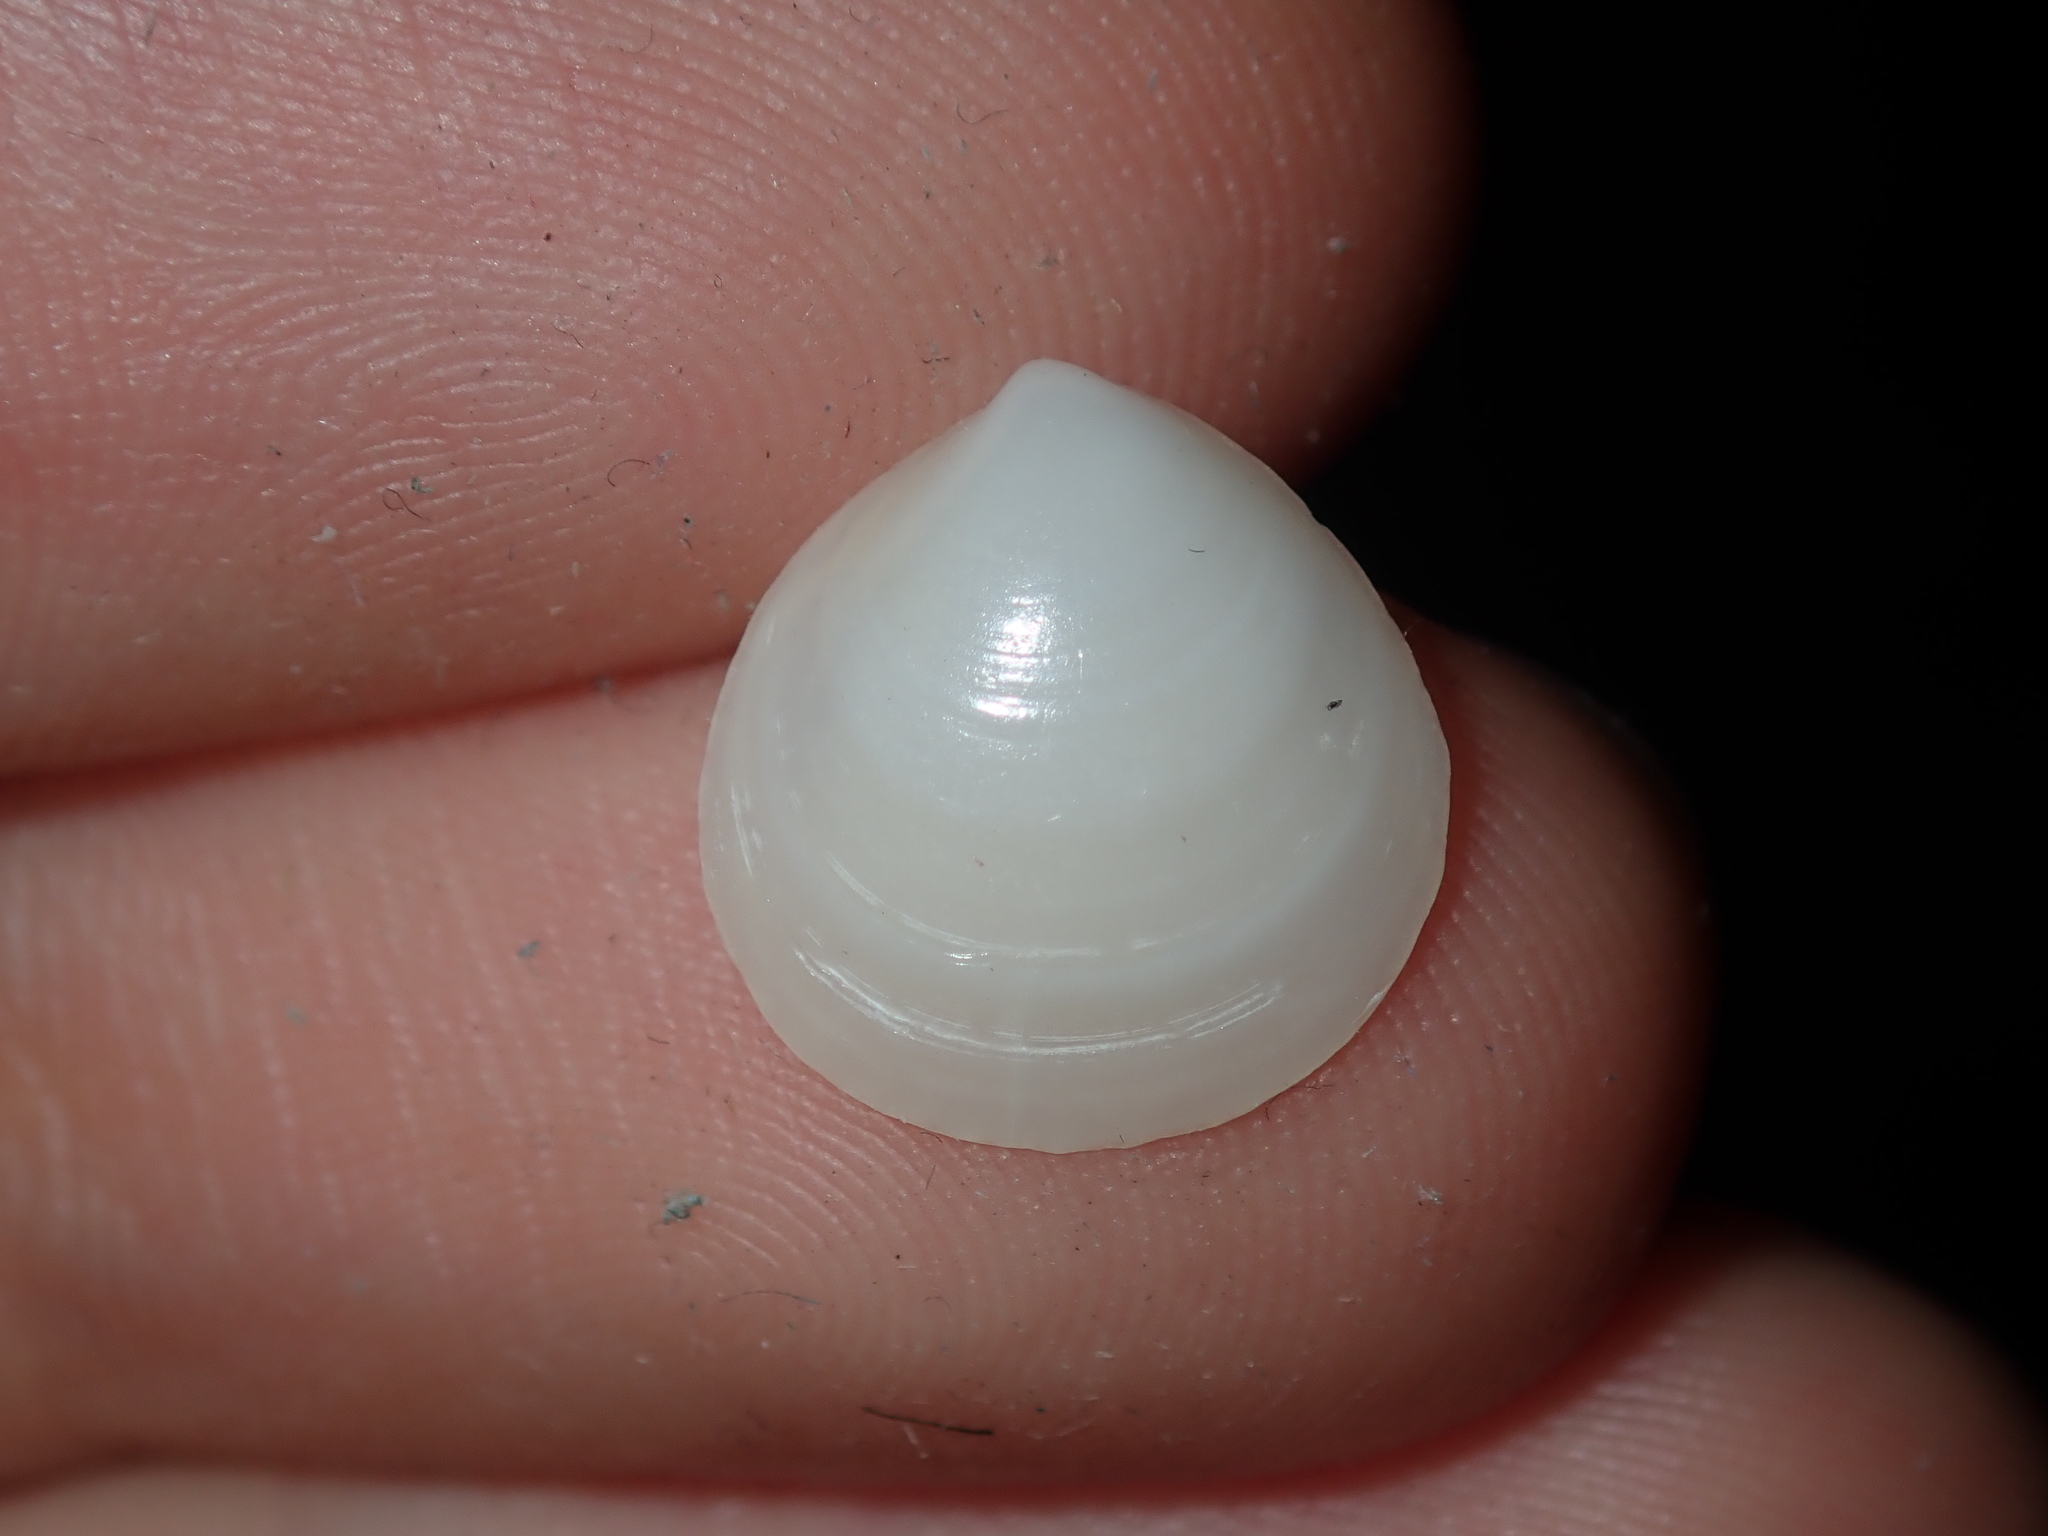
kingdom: Animalia
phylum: Mollusca
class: Bivalvia
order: Venerida
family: Ungulinidae
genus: Microstagon
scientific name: Microstagon jacksonensis
